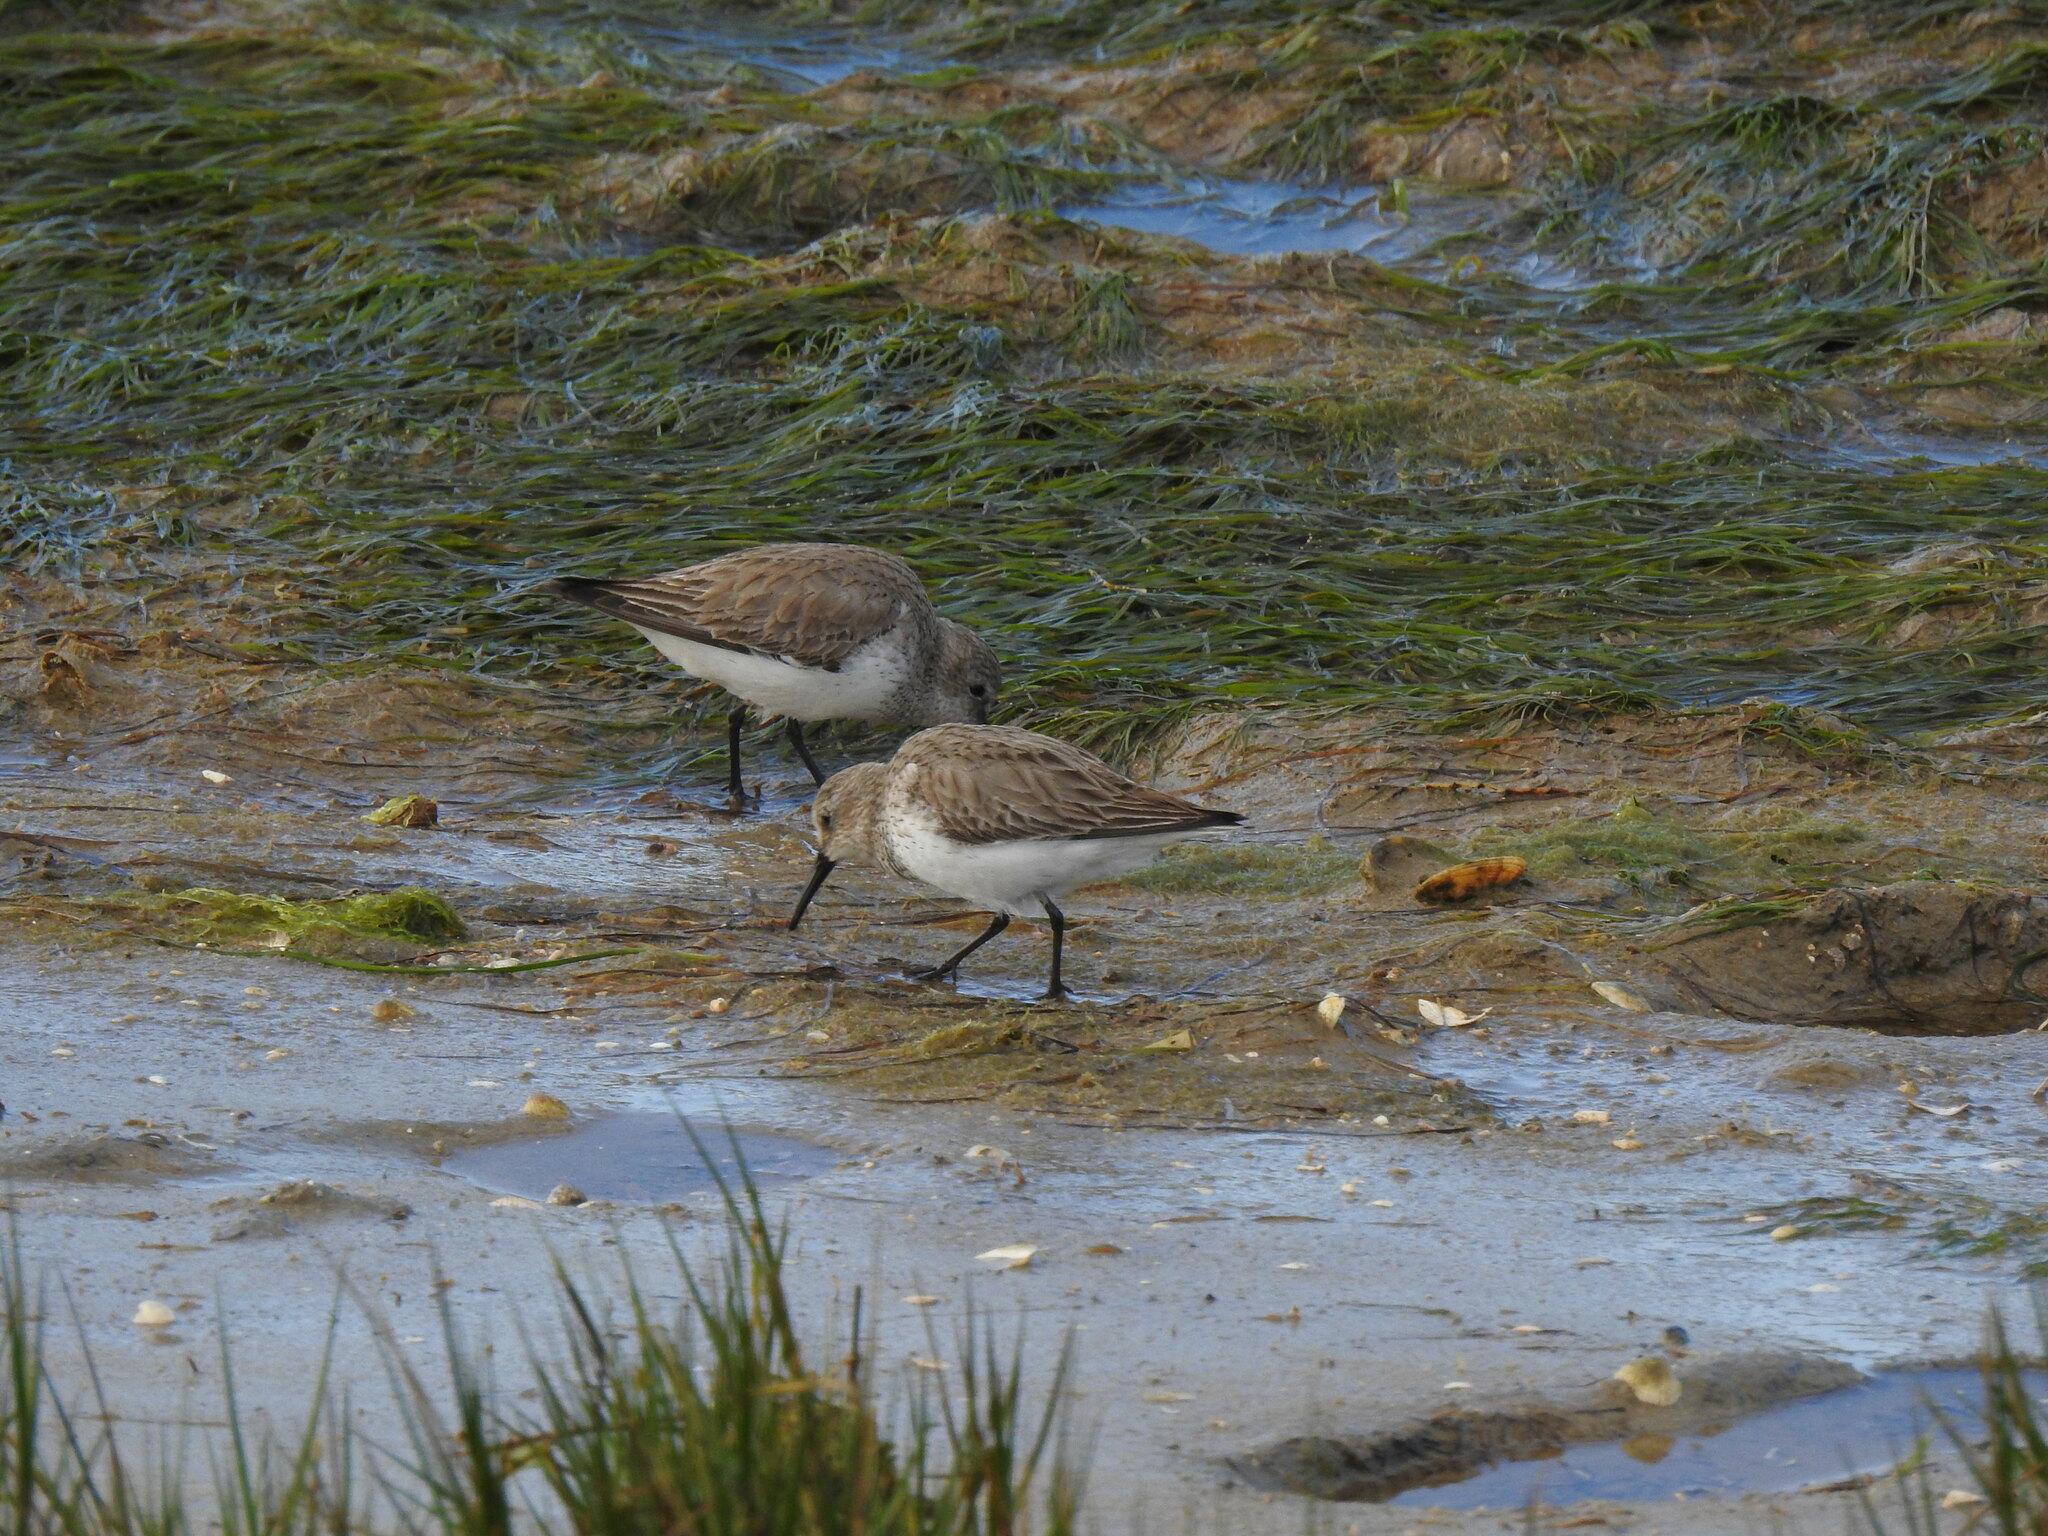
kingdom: Animalia
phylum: Chordata
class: Aves
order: Charadriiformes
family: Scolopacidae
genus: Calidris
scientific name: Calidris alpina
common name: Dunlin
